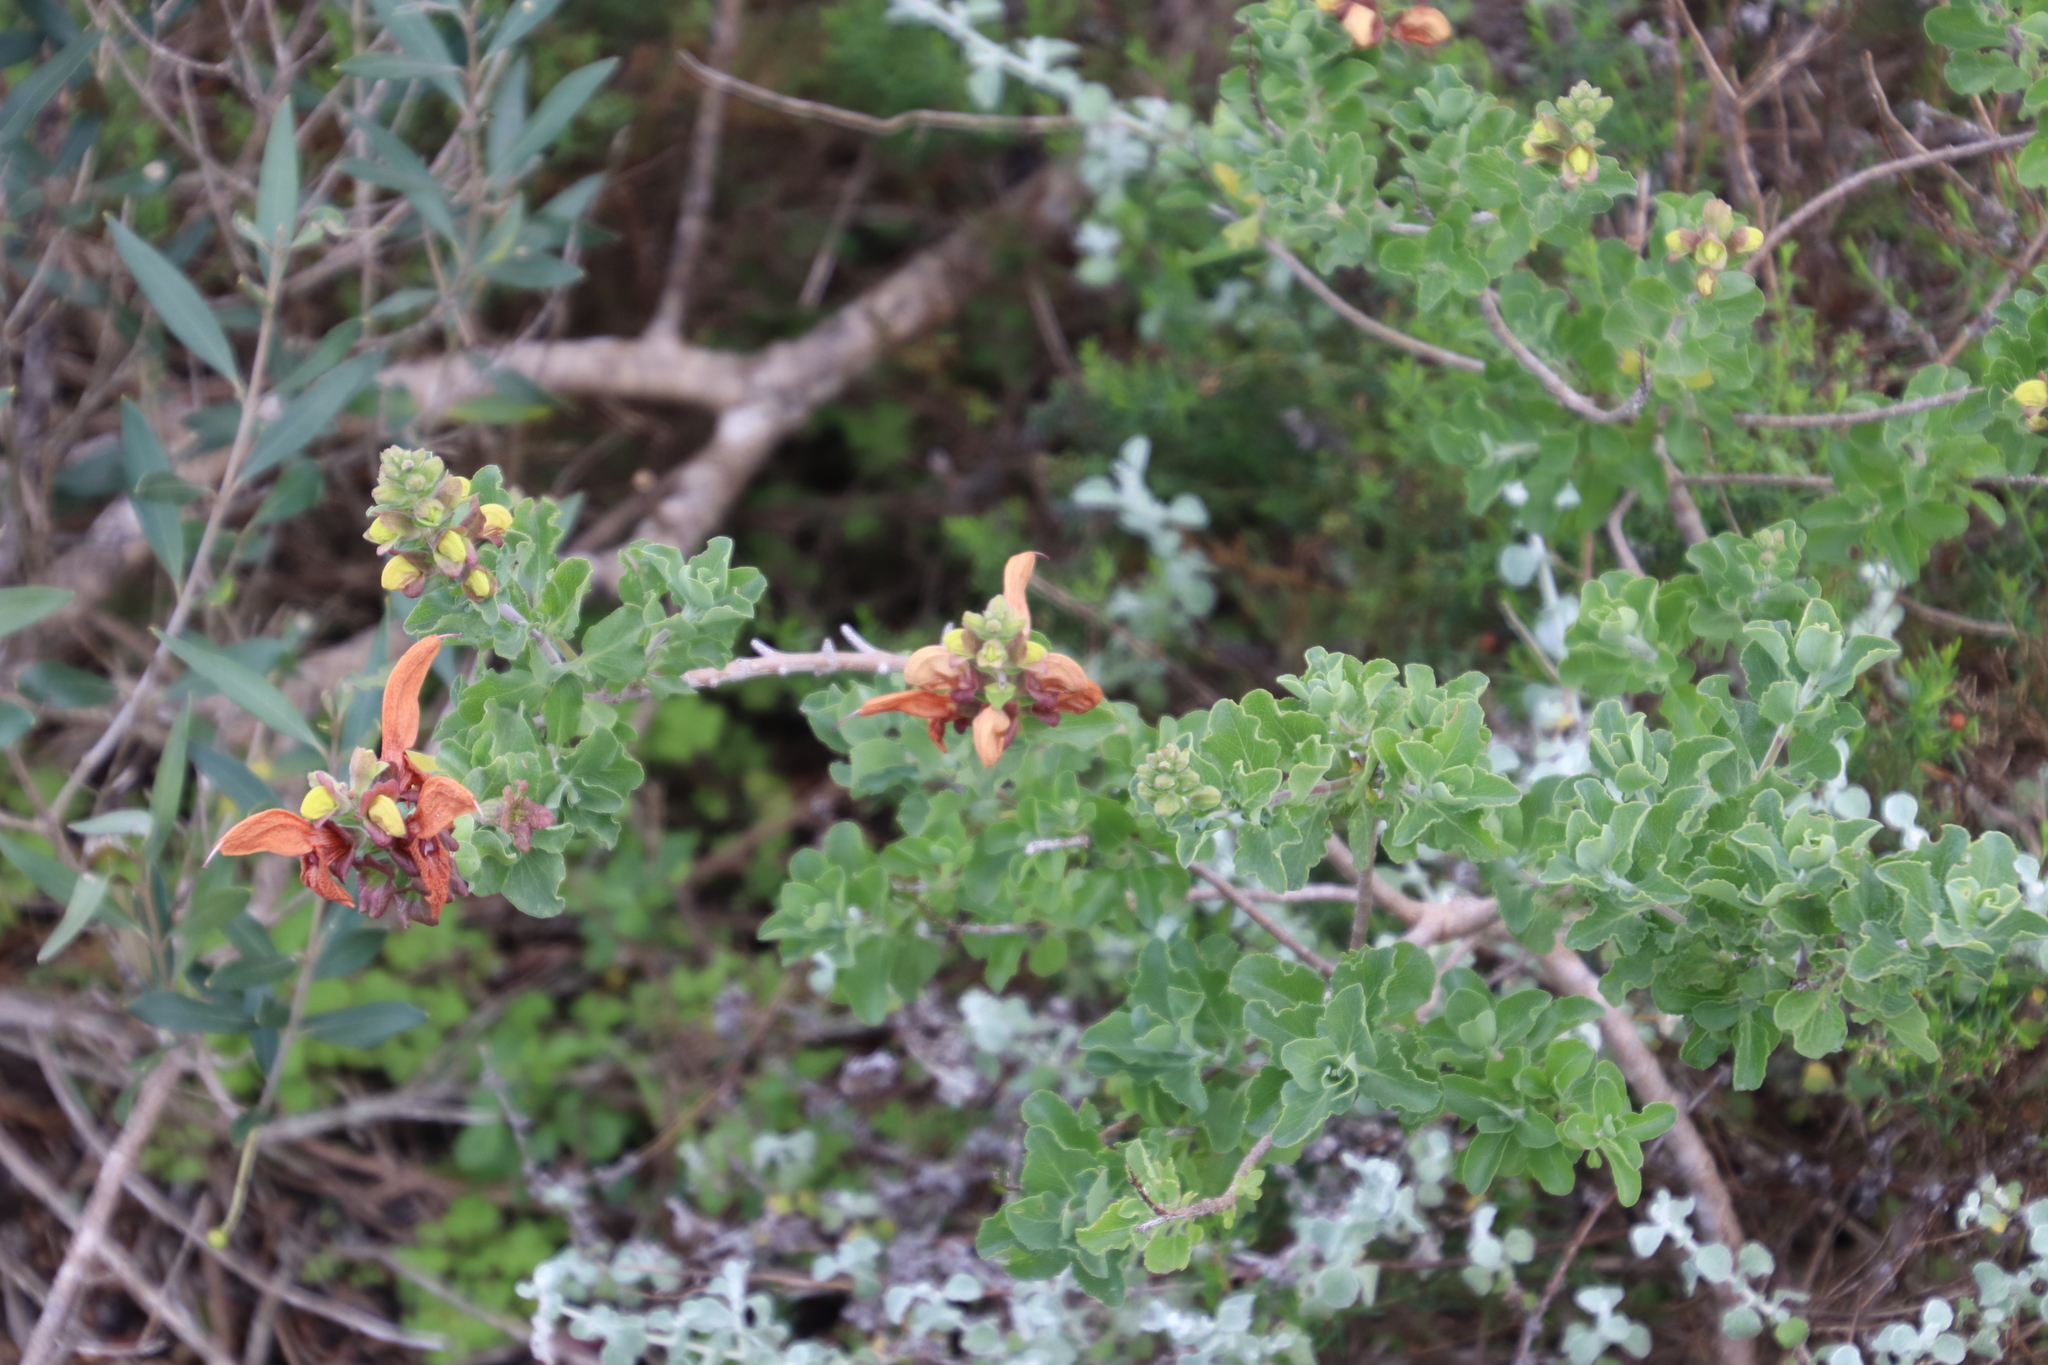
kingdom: Plantae
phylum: Tracheophyta
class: Magnoliopsida
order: Lamiales
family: Lamiaceae
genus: Salvia
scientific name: Salvia lanceolata
